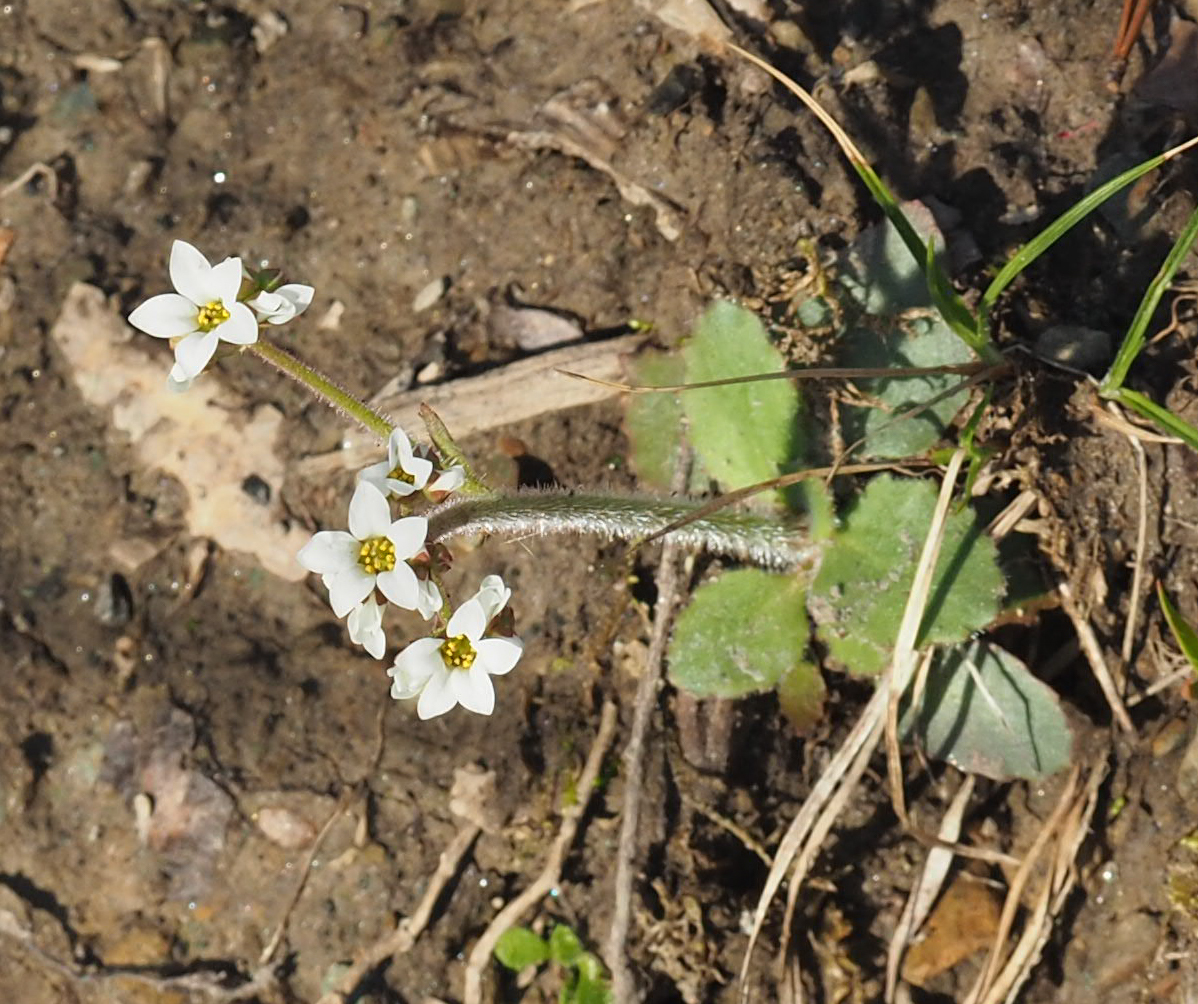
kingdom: Plantae
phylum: Tracheophyta
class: Magnoliopsida
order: Saxifragales
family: Saxifragaceae
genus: Micranthes
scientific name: Micranthes virginiensis
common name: Early saxifrage
